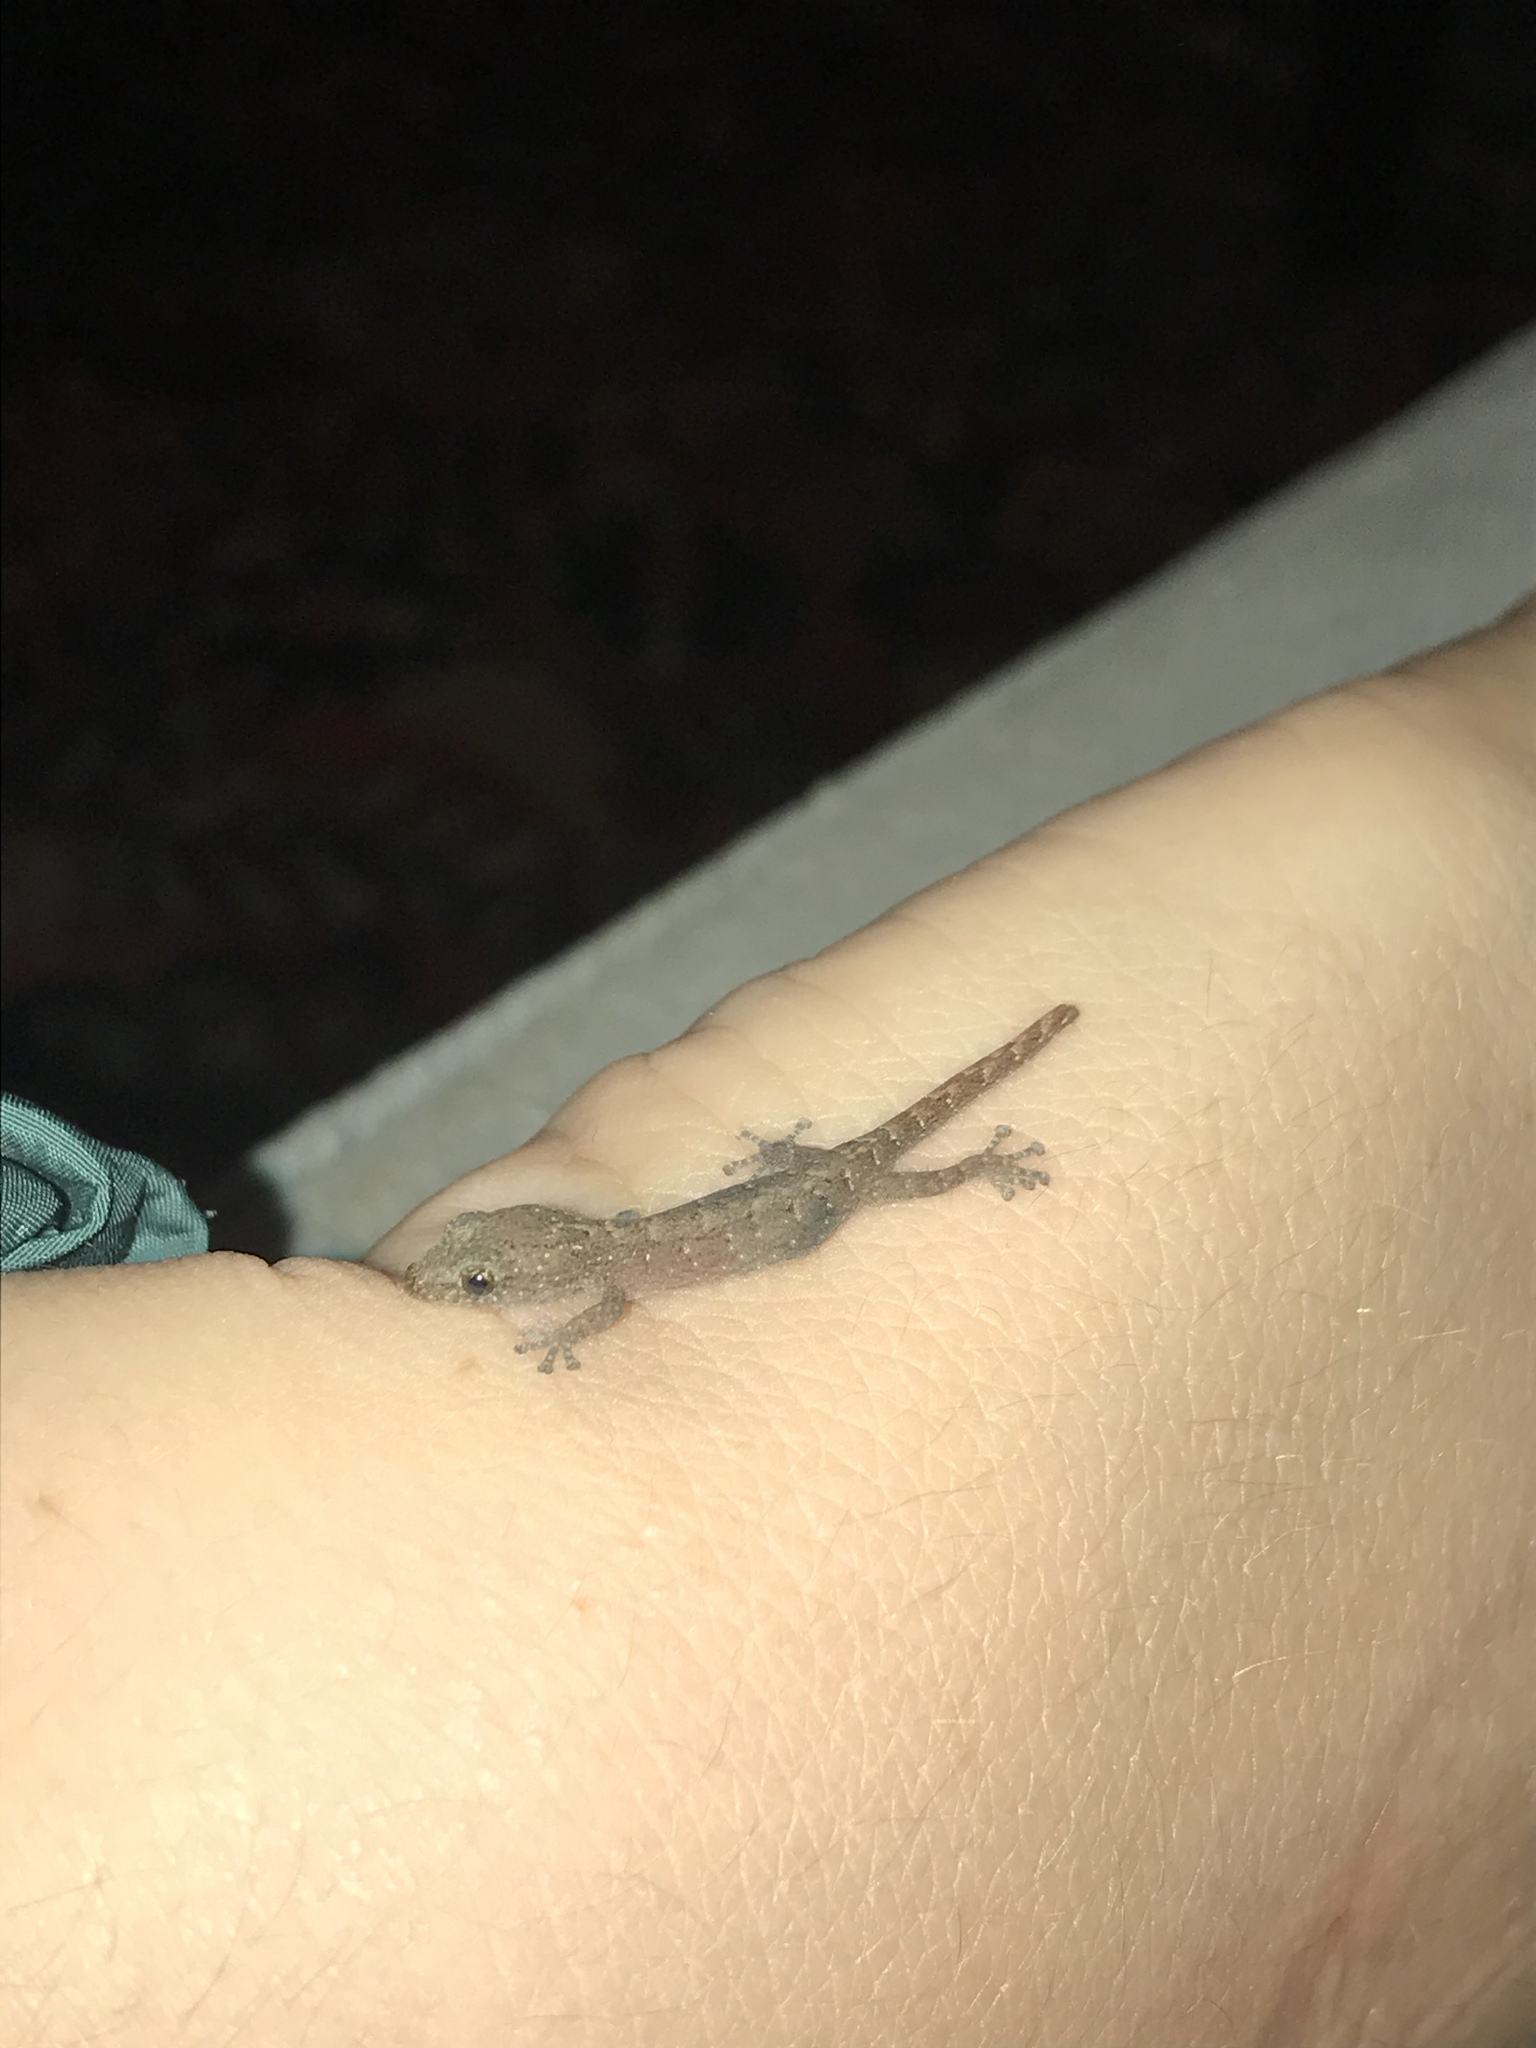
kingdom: Animalia
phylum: Chordata
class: Squamata
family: Gekkonidae
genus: Afrogecko
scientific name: Afrogecko porphyreus
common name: Marbled leaf-toed gecko
